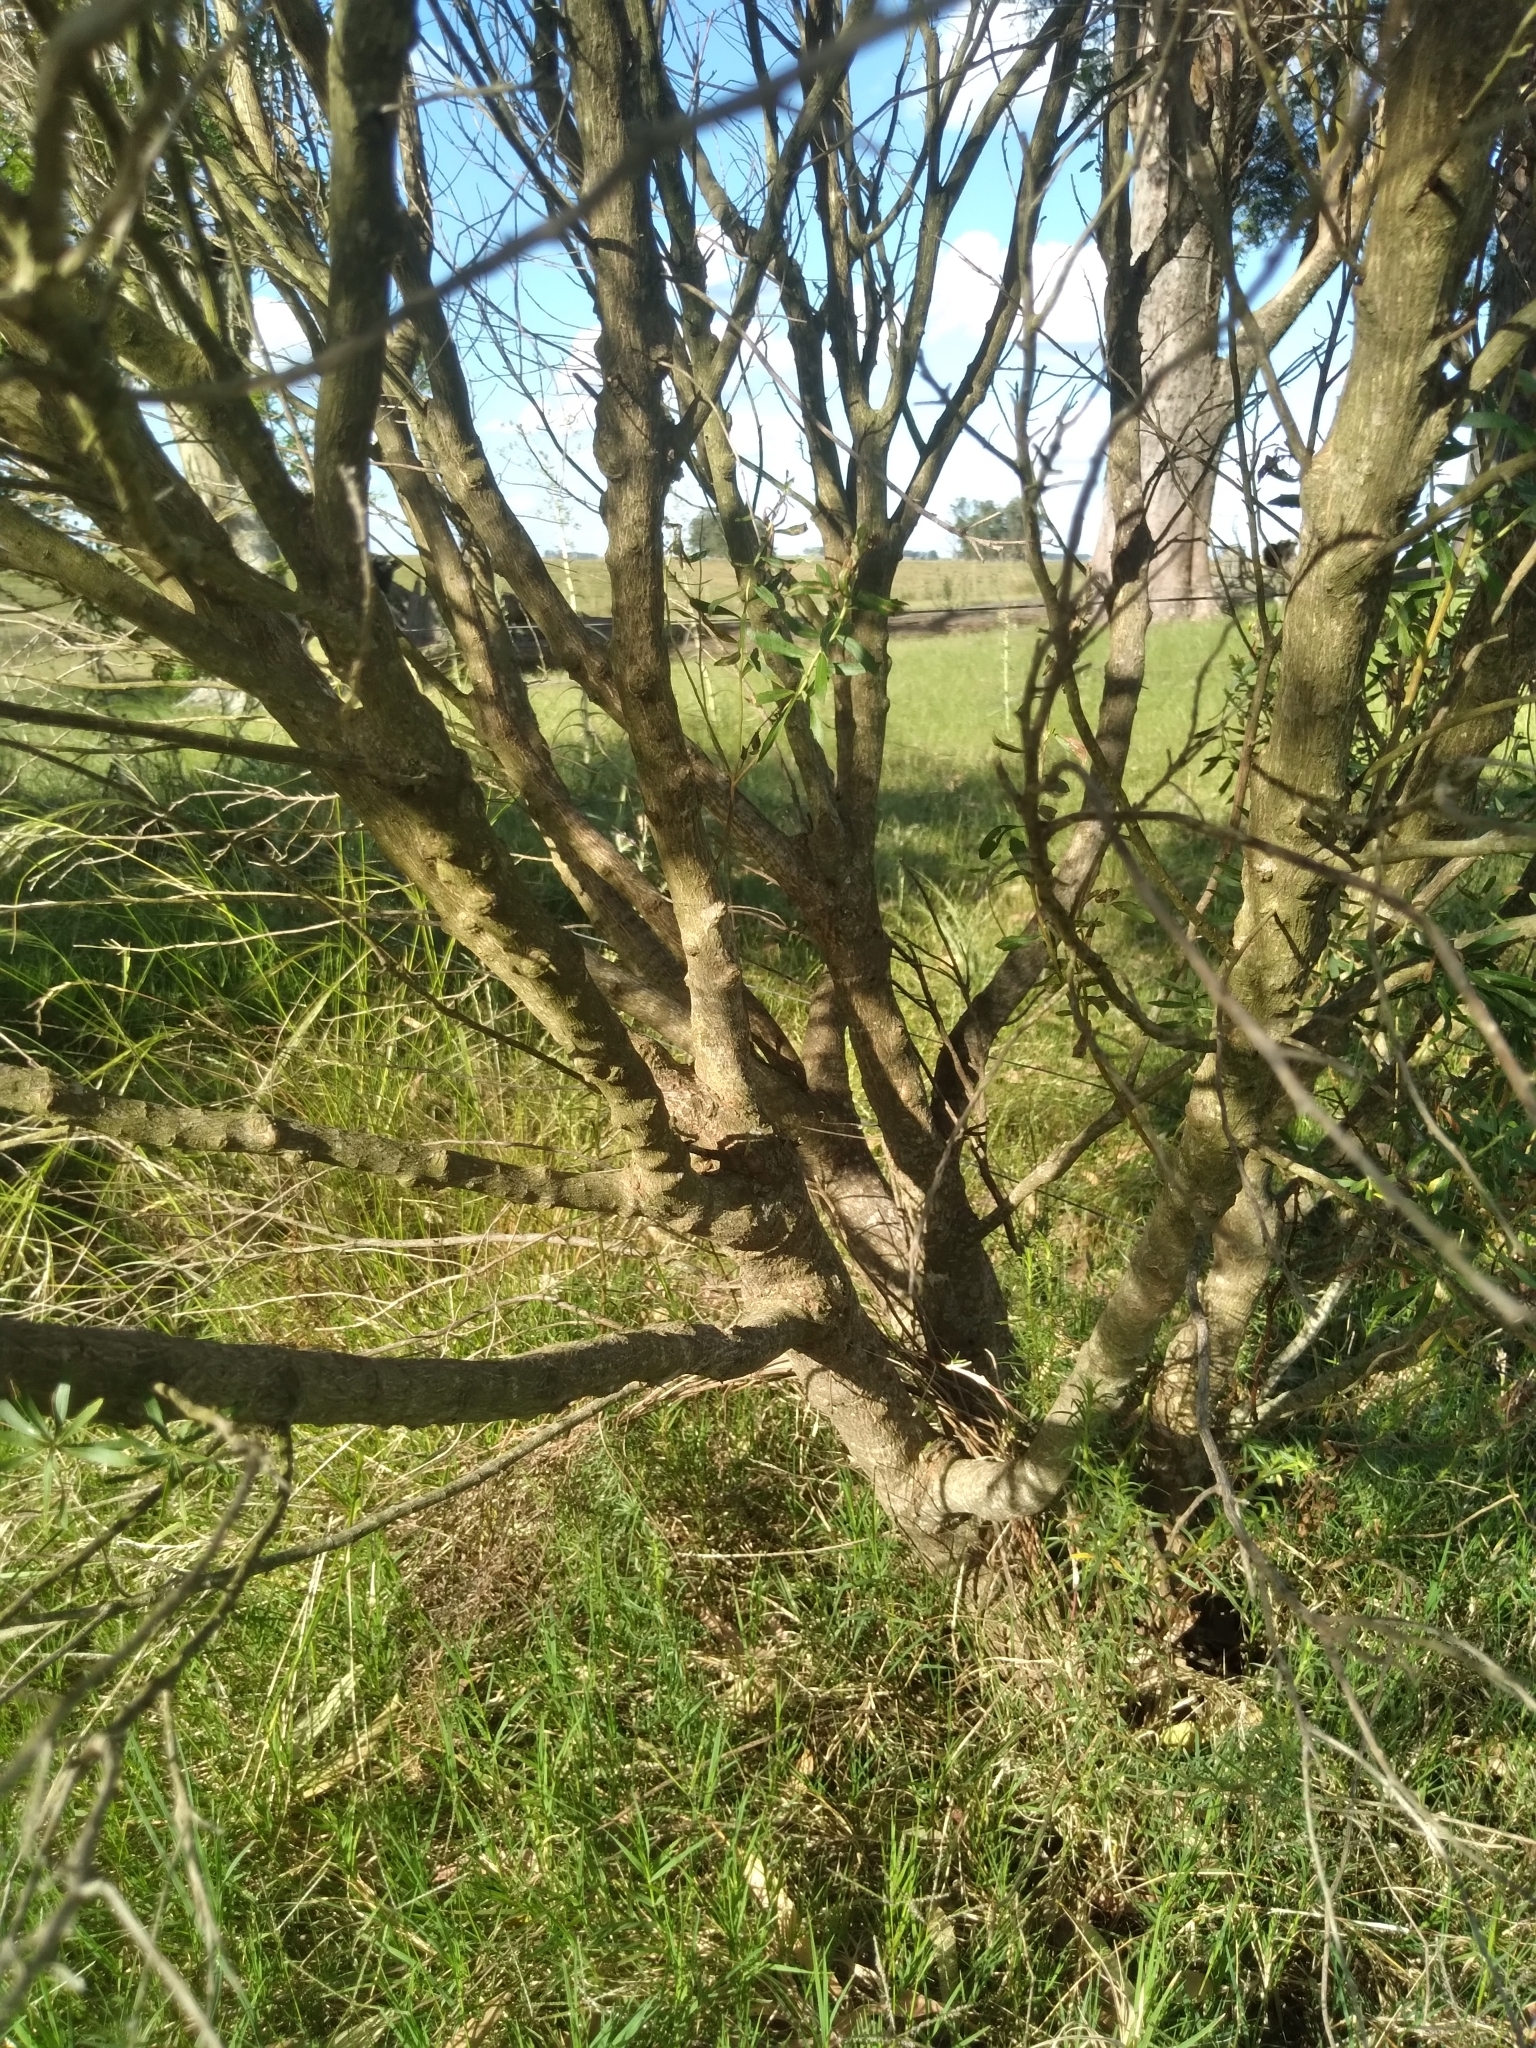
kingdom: Plantae
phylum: Tracheophyta
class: Magnoliopsida
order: Asterales
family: Asteraceae
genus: Baccharis
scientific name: Baccharis dracunculifolia
